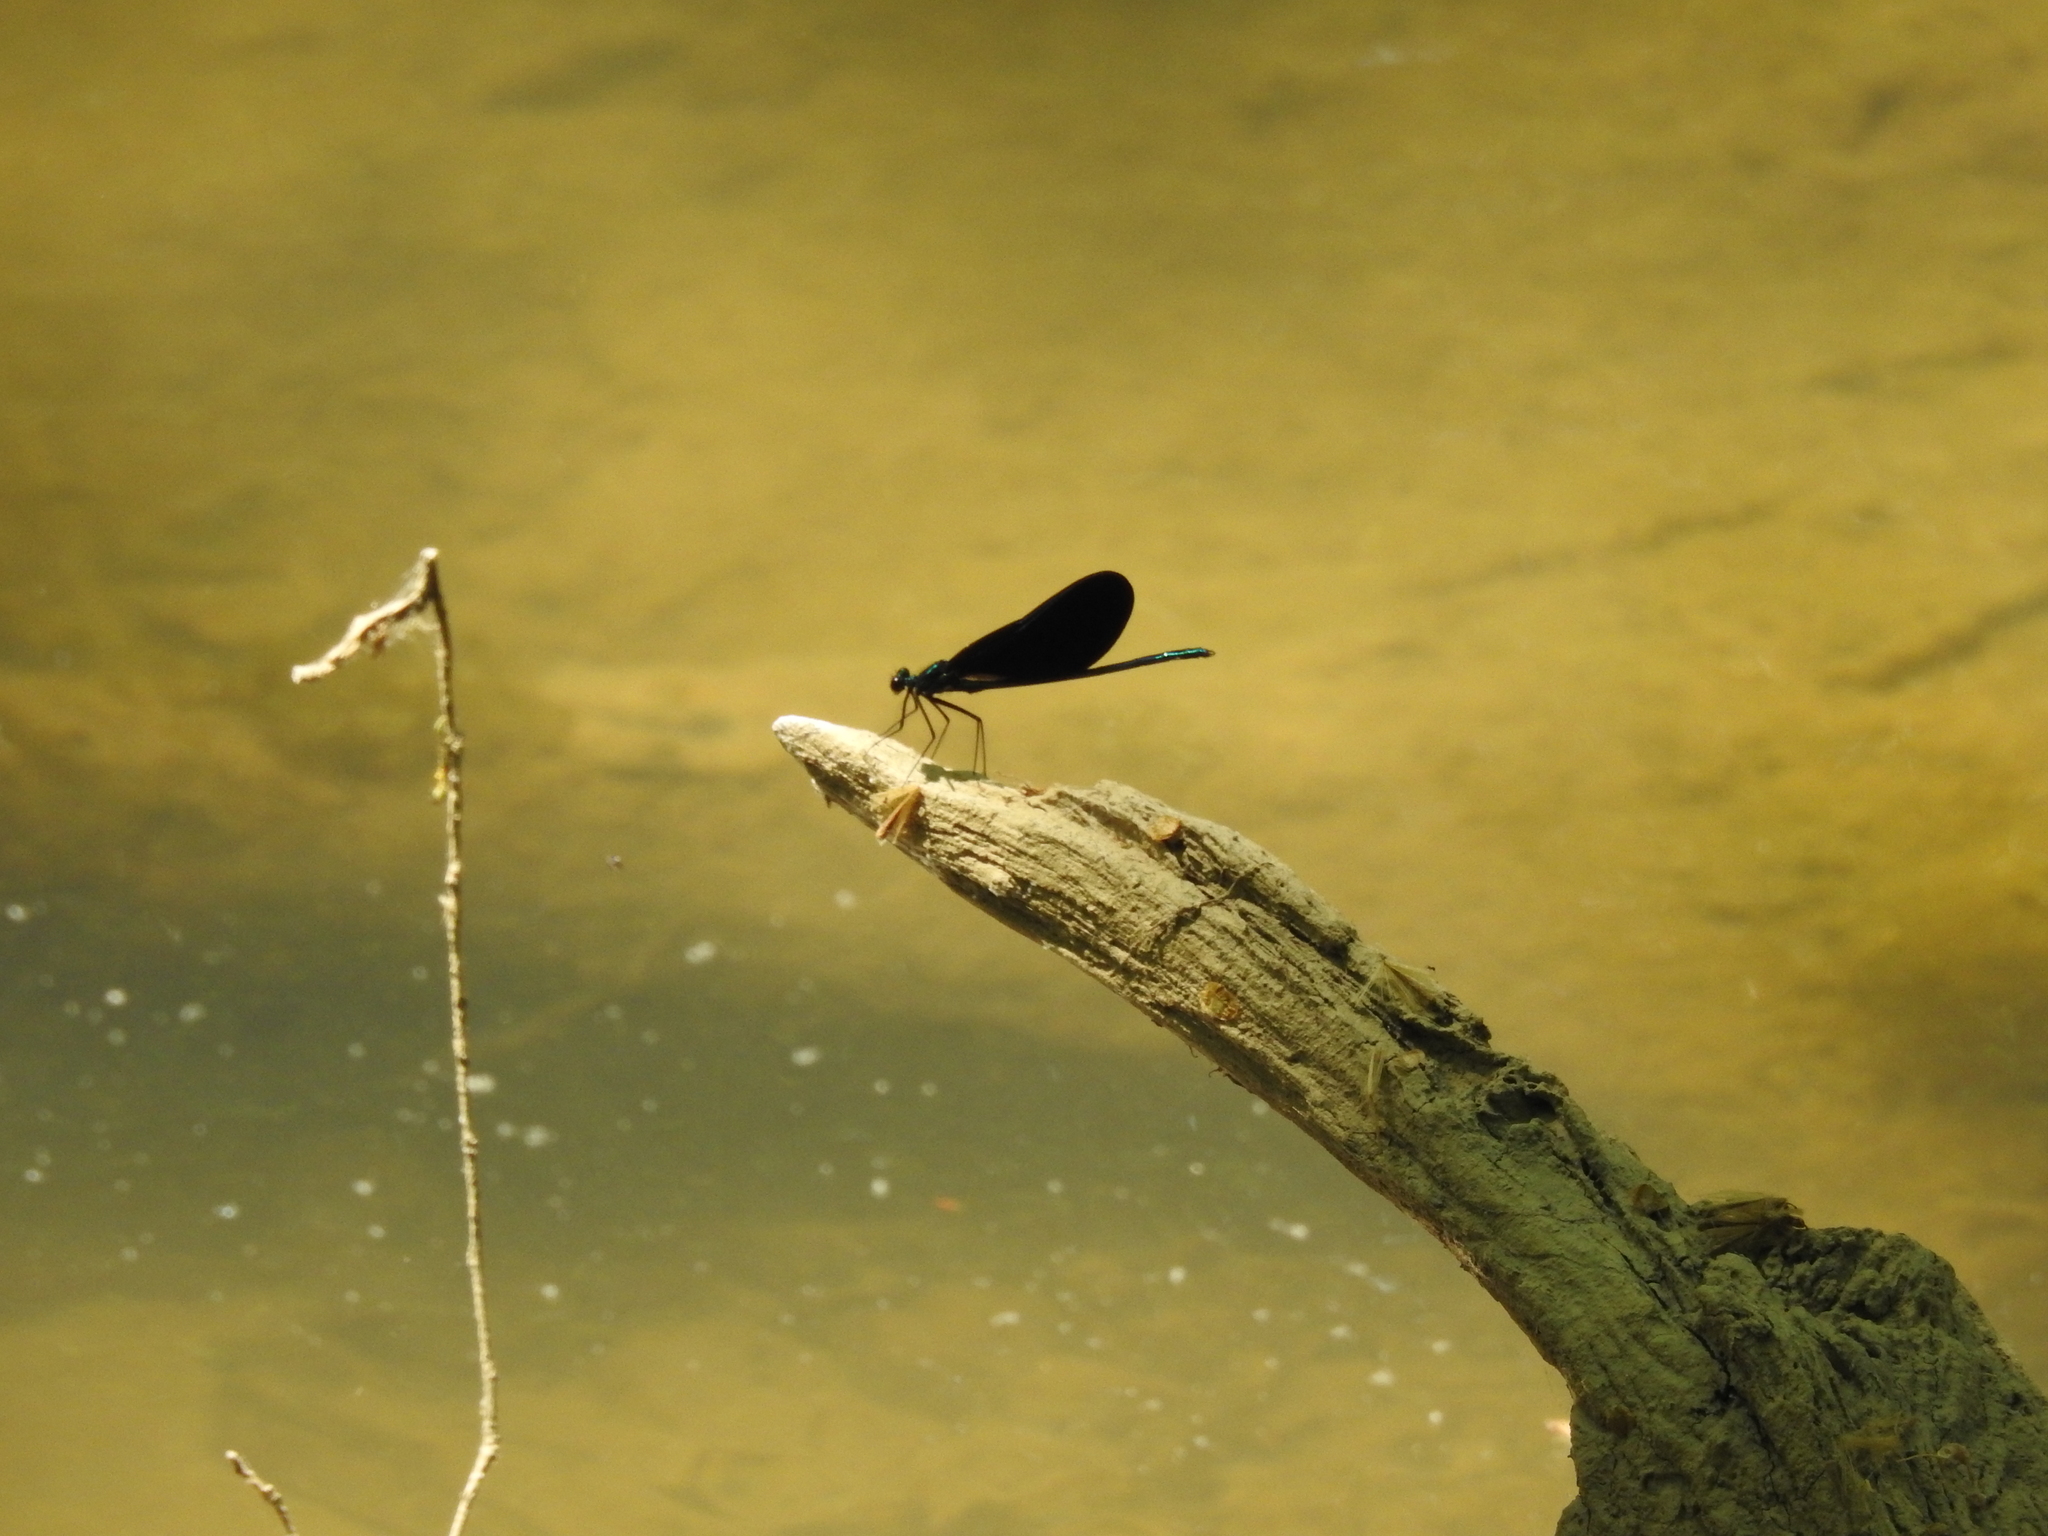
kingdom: Animalia
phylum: Arthropoda
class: Insecta
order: Odonata
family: Calopterygidae
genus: Calopteryx
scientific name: Calopteryx maculata
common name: Ebony jewelwing
